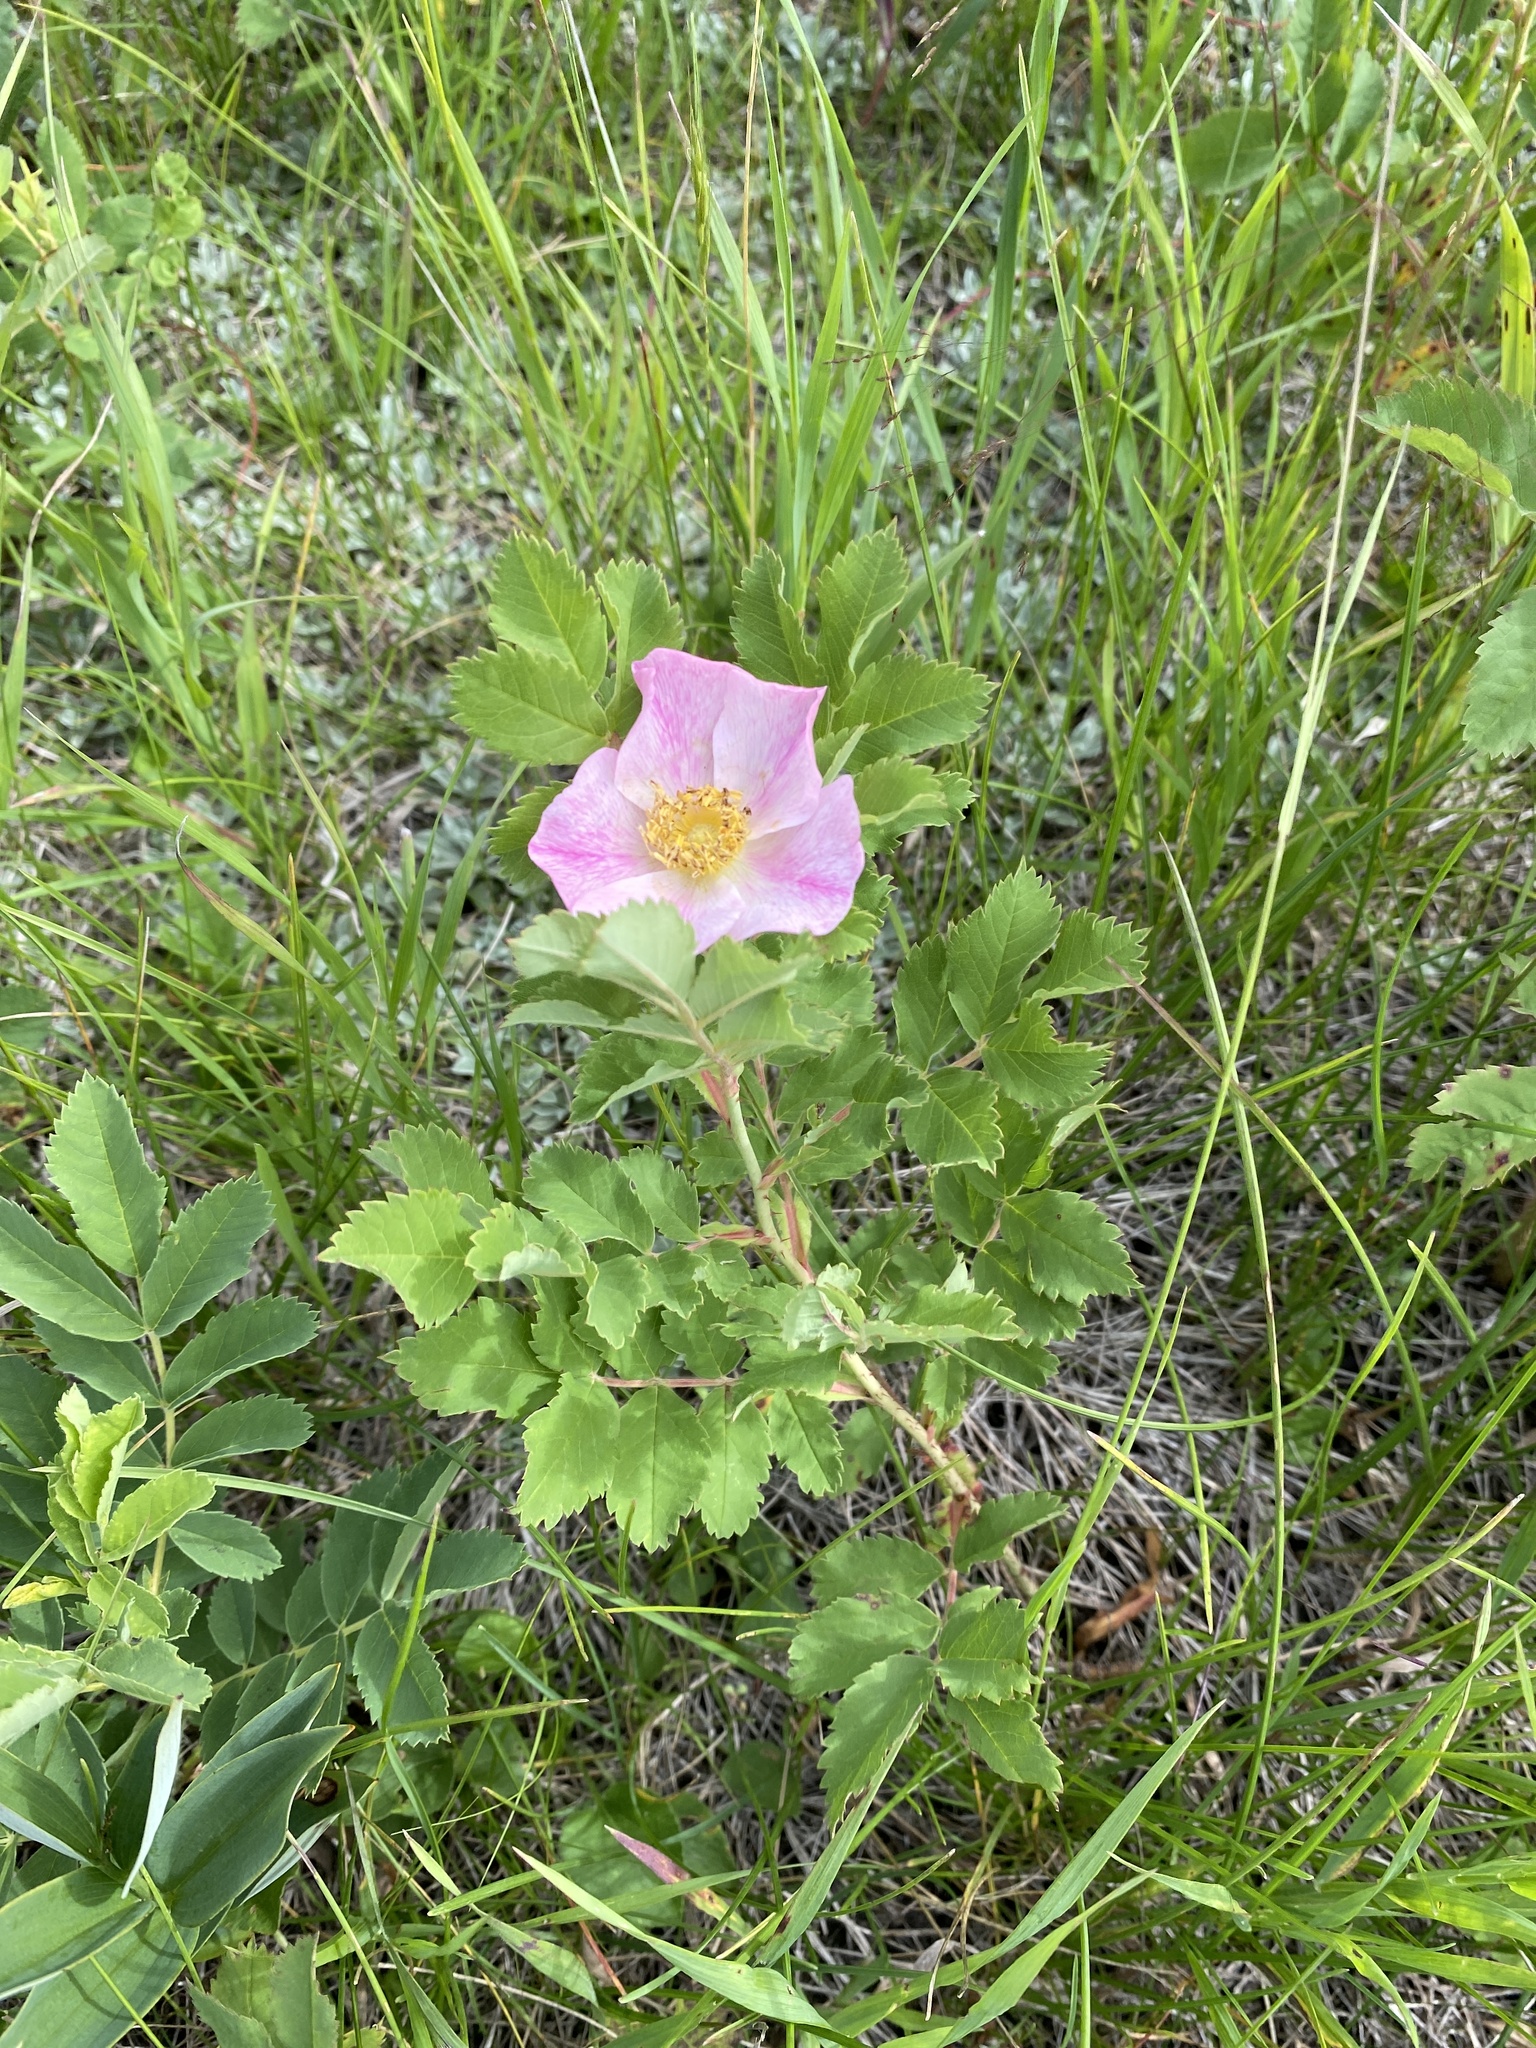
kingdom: Plantae
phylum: Tracheophyta
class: Magnoliopsida
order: Rosales
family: Rosaceae
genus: Rosa
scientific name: Rosa arkansana
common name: Prairie rose
